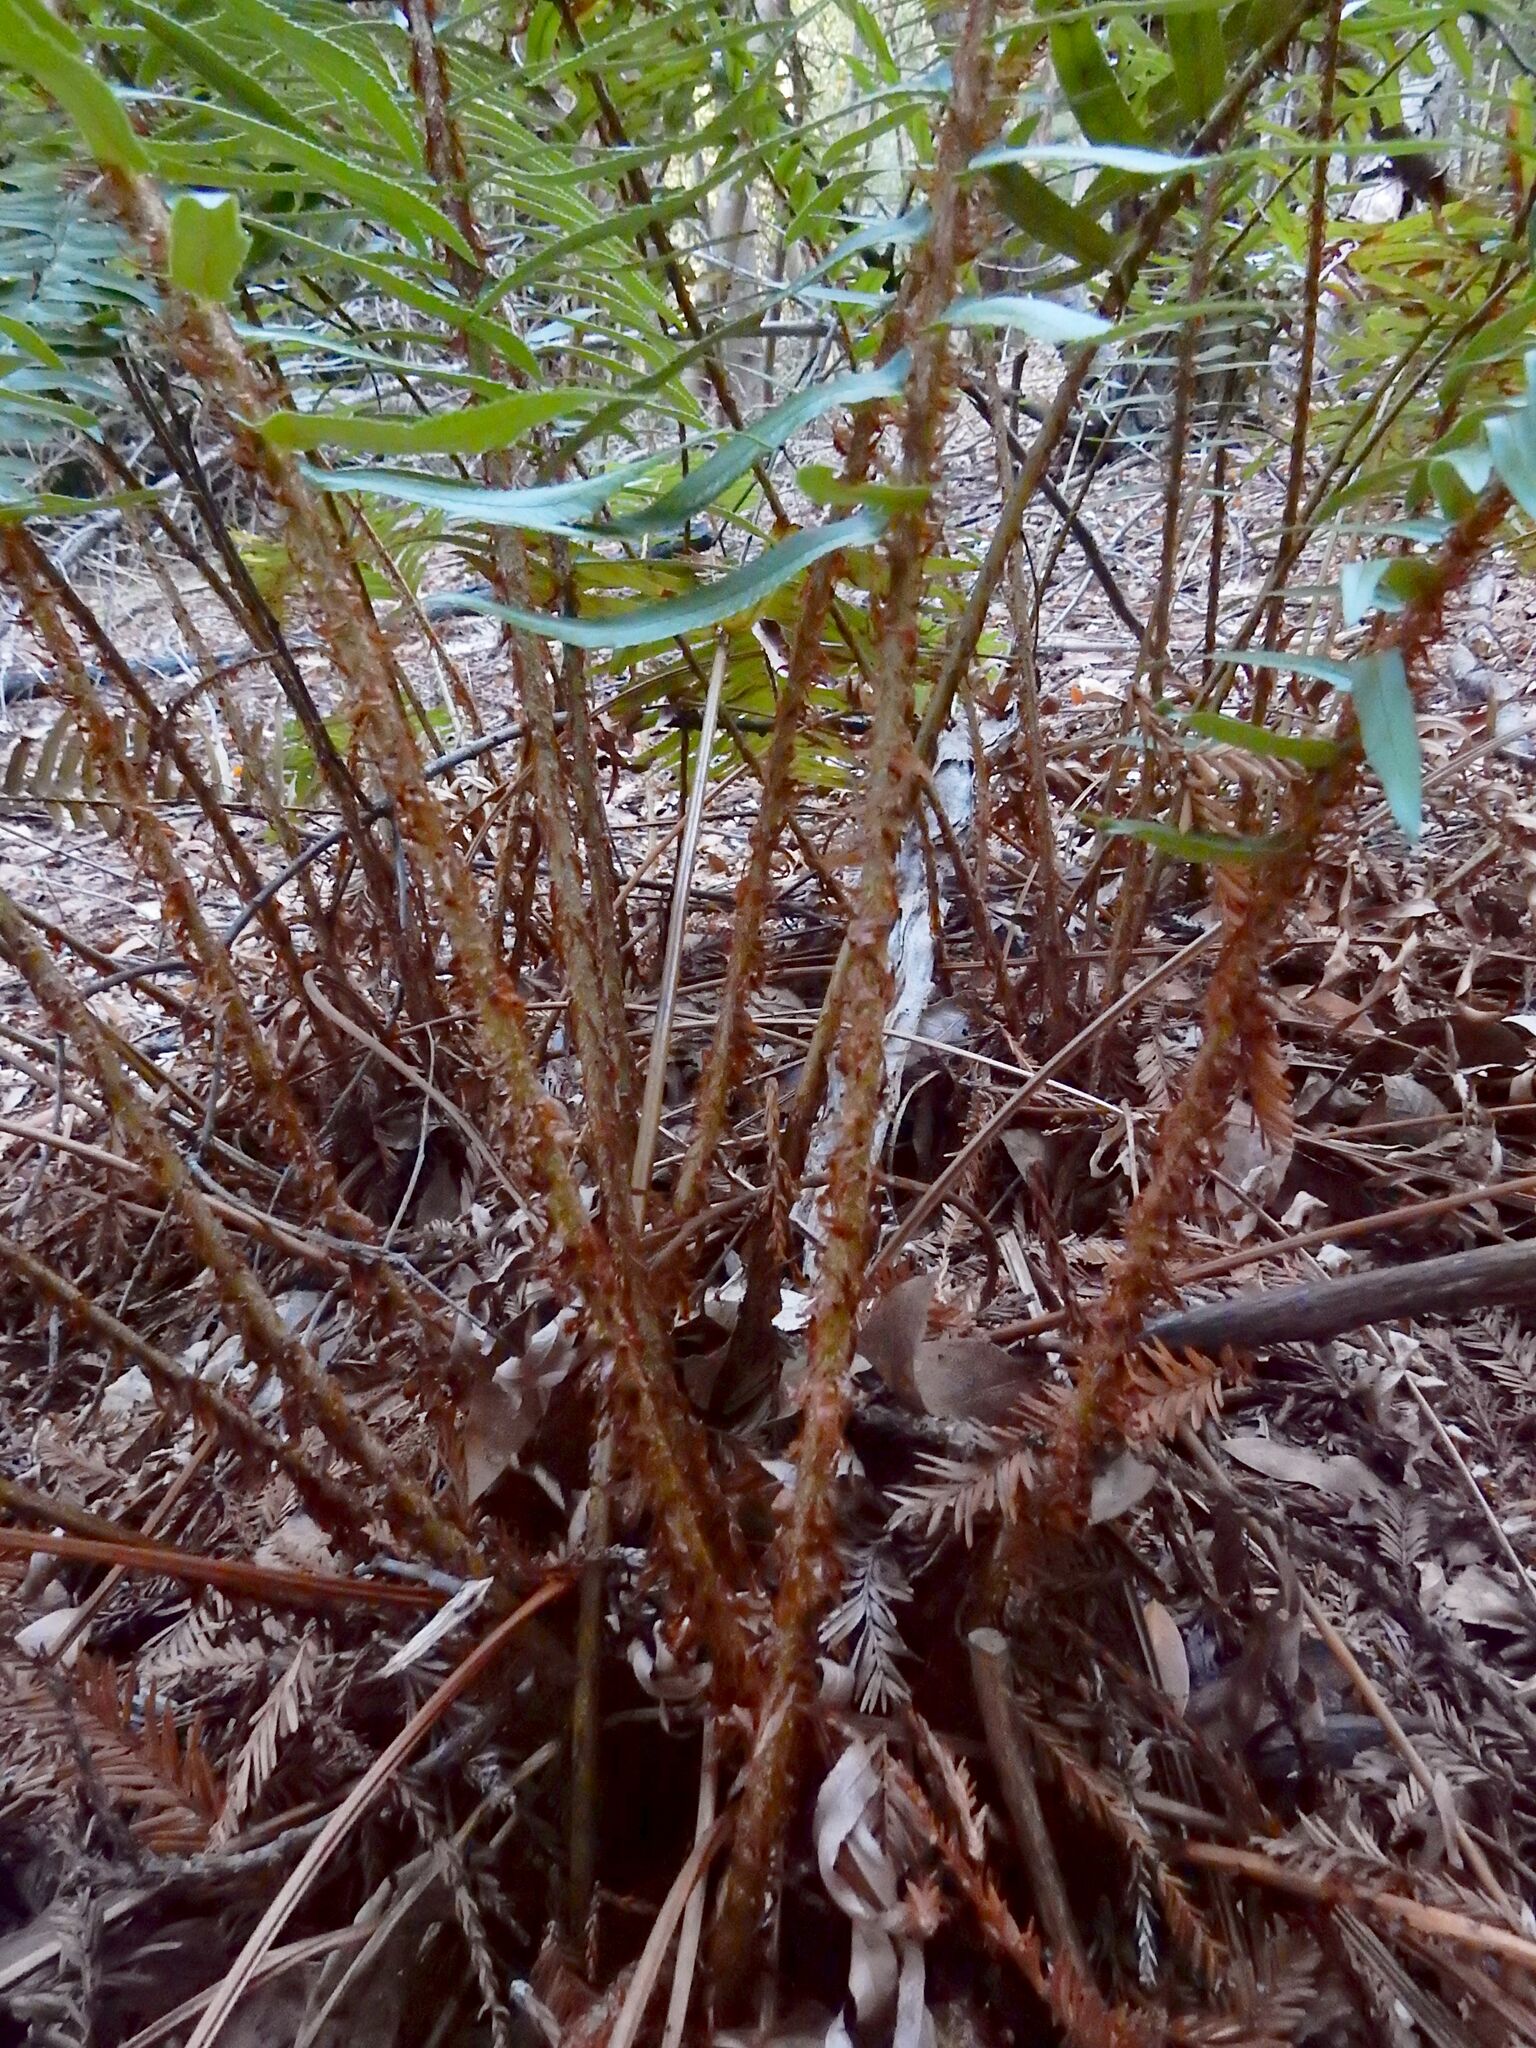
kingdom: Plantae
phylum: Tracheophyta
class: Polypodiopsida
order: Polypodiales
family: Dryopteridaceae
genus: Polystichum
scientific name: Polystichum munitum
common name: Western sword-fern
